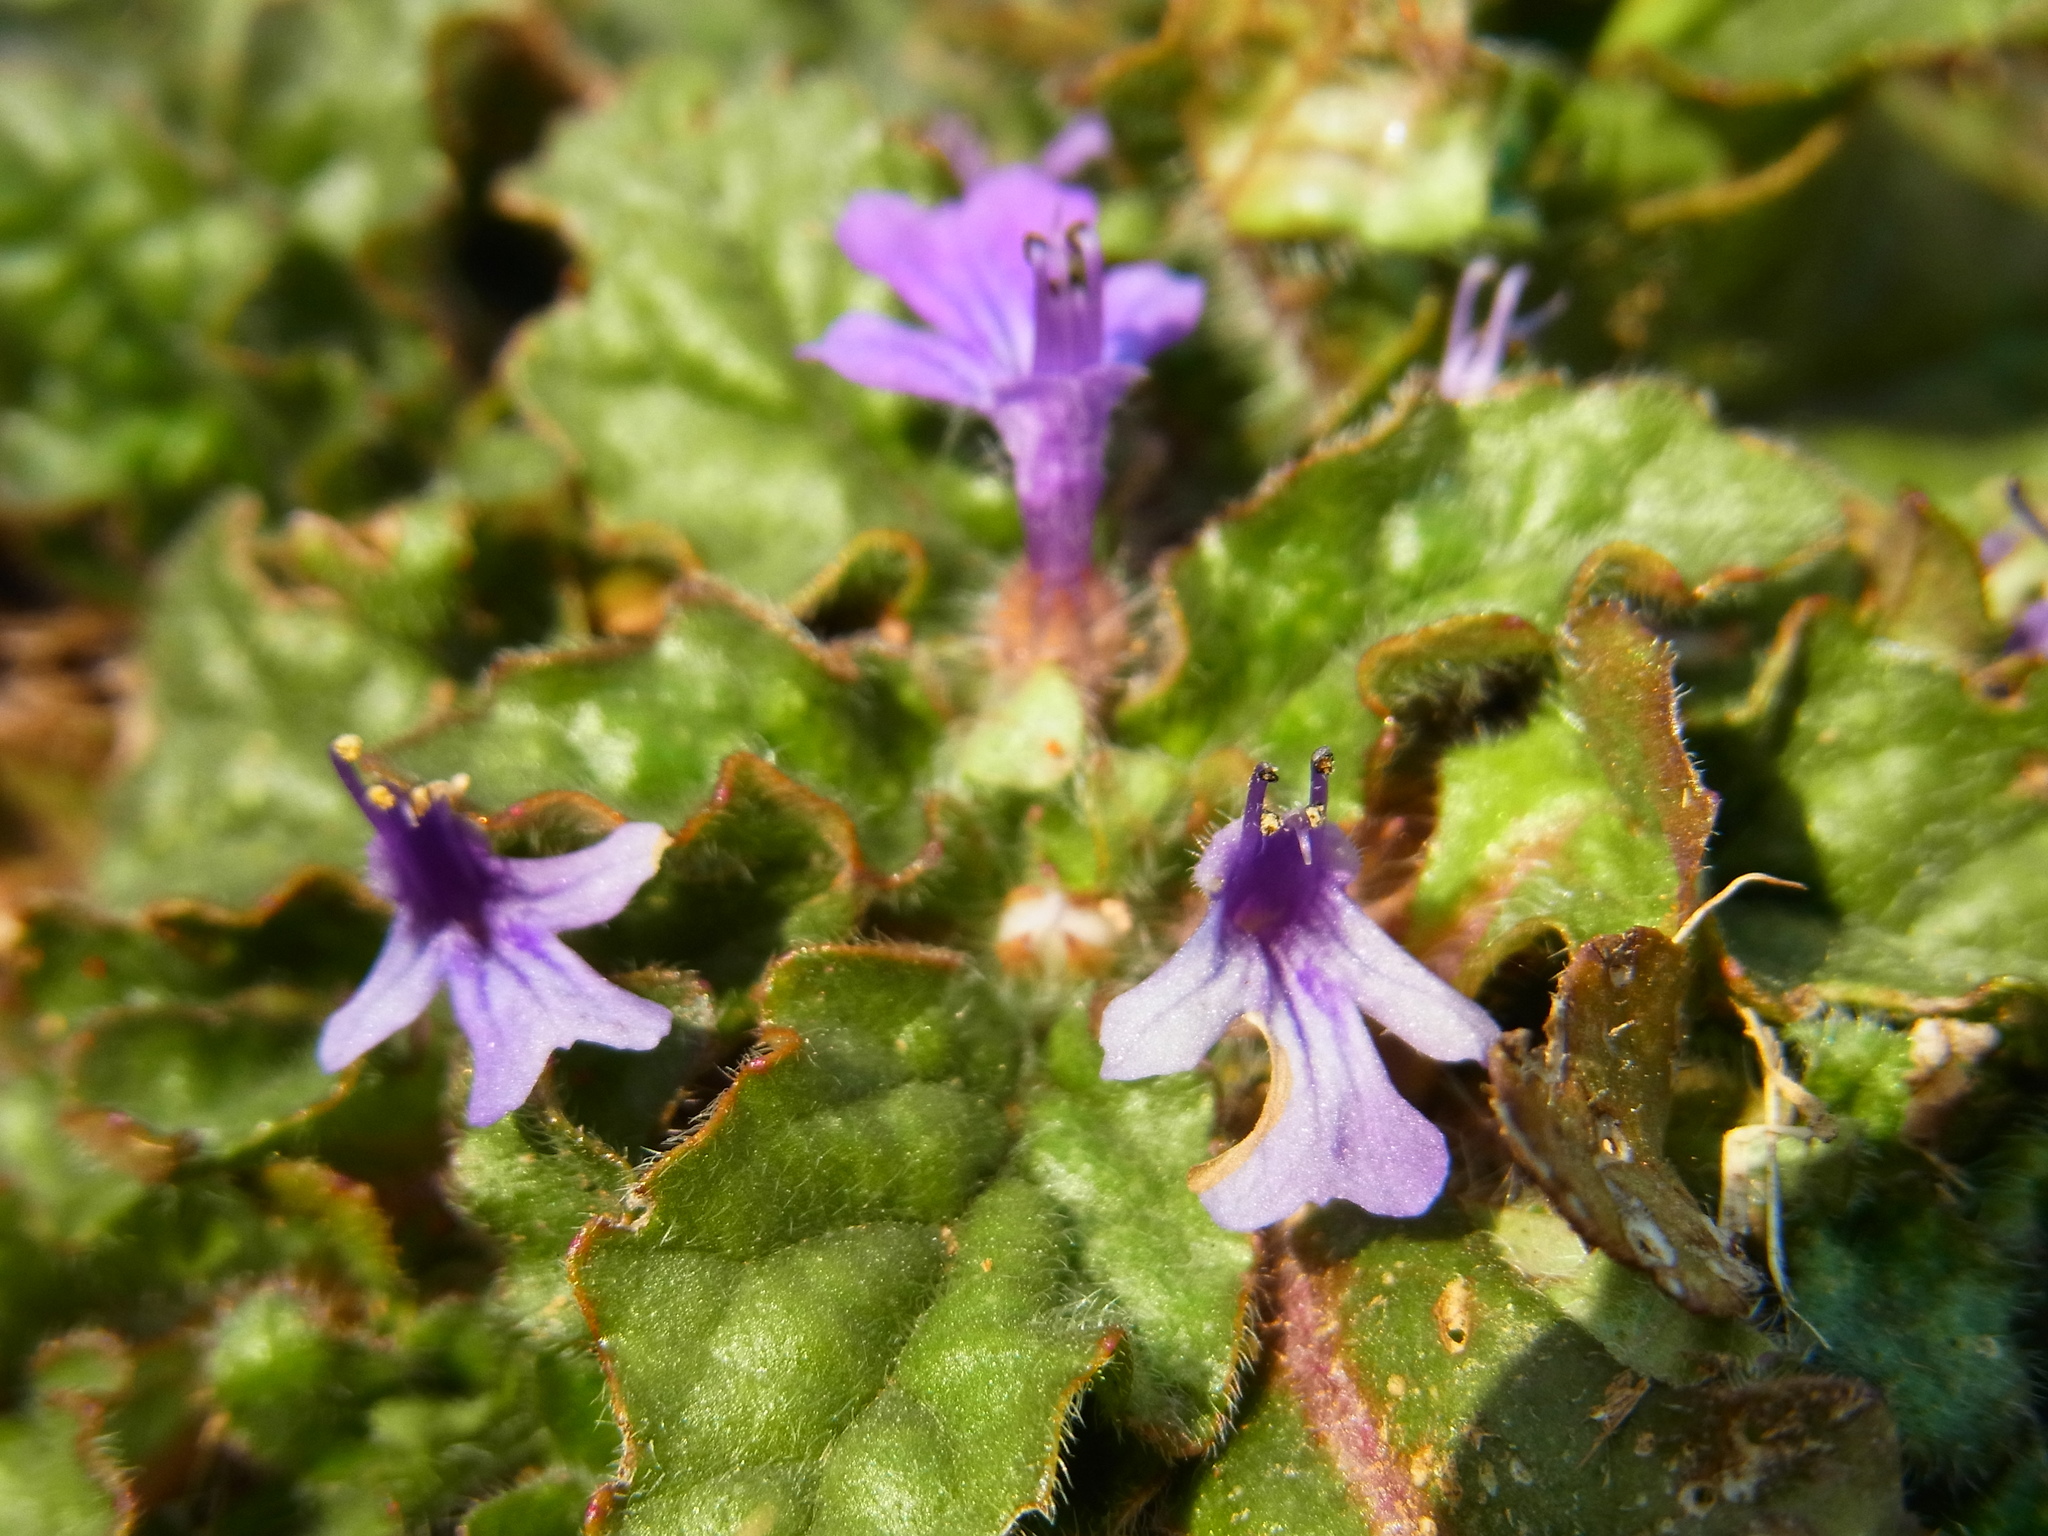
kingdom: Plantae
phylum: Tracheophyta
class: Magnoliopsida
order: Lamiales
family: Lamiaceae
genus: Ajuga
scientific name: Ajuga decumbens
